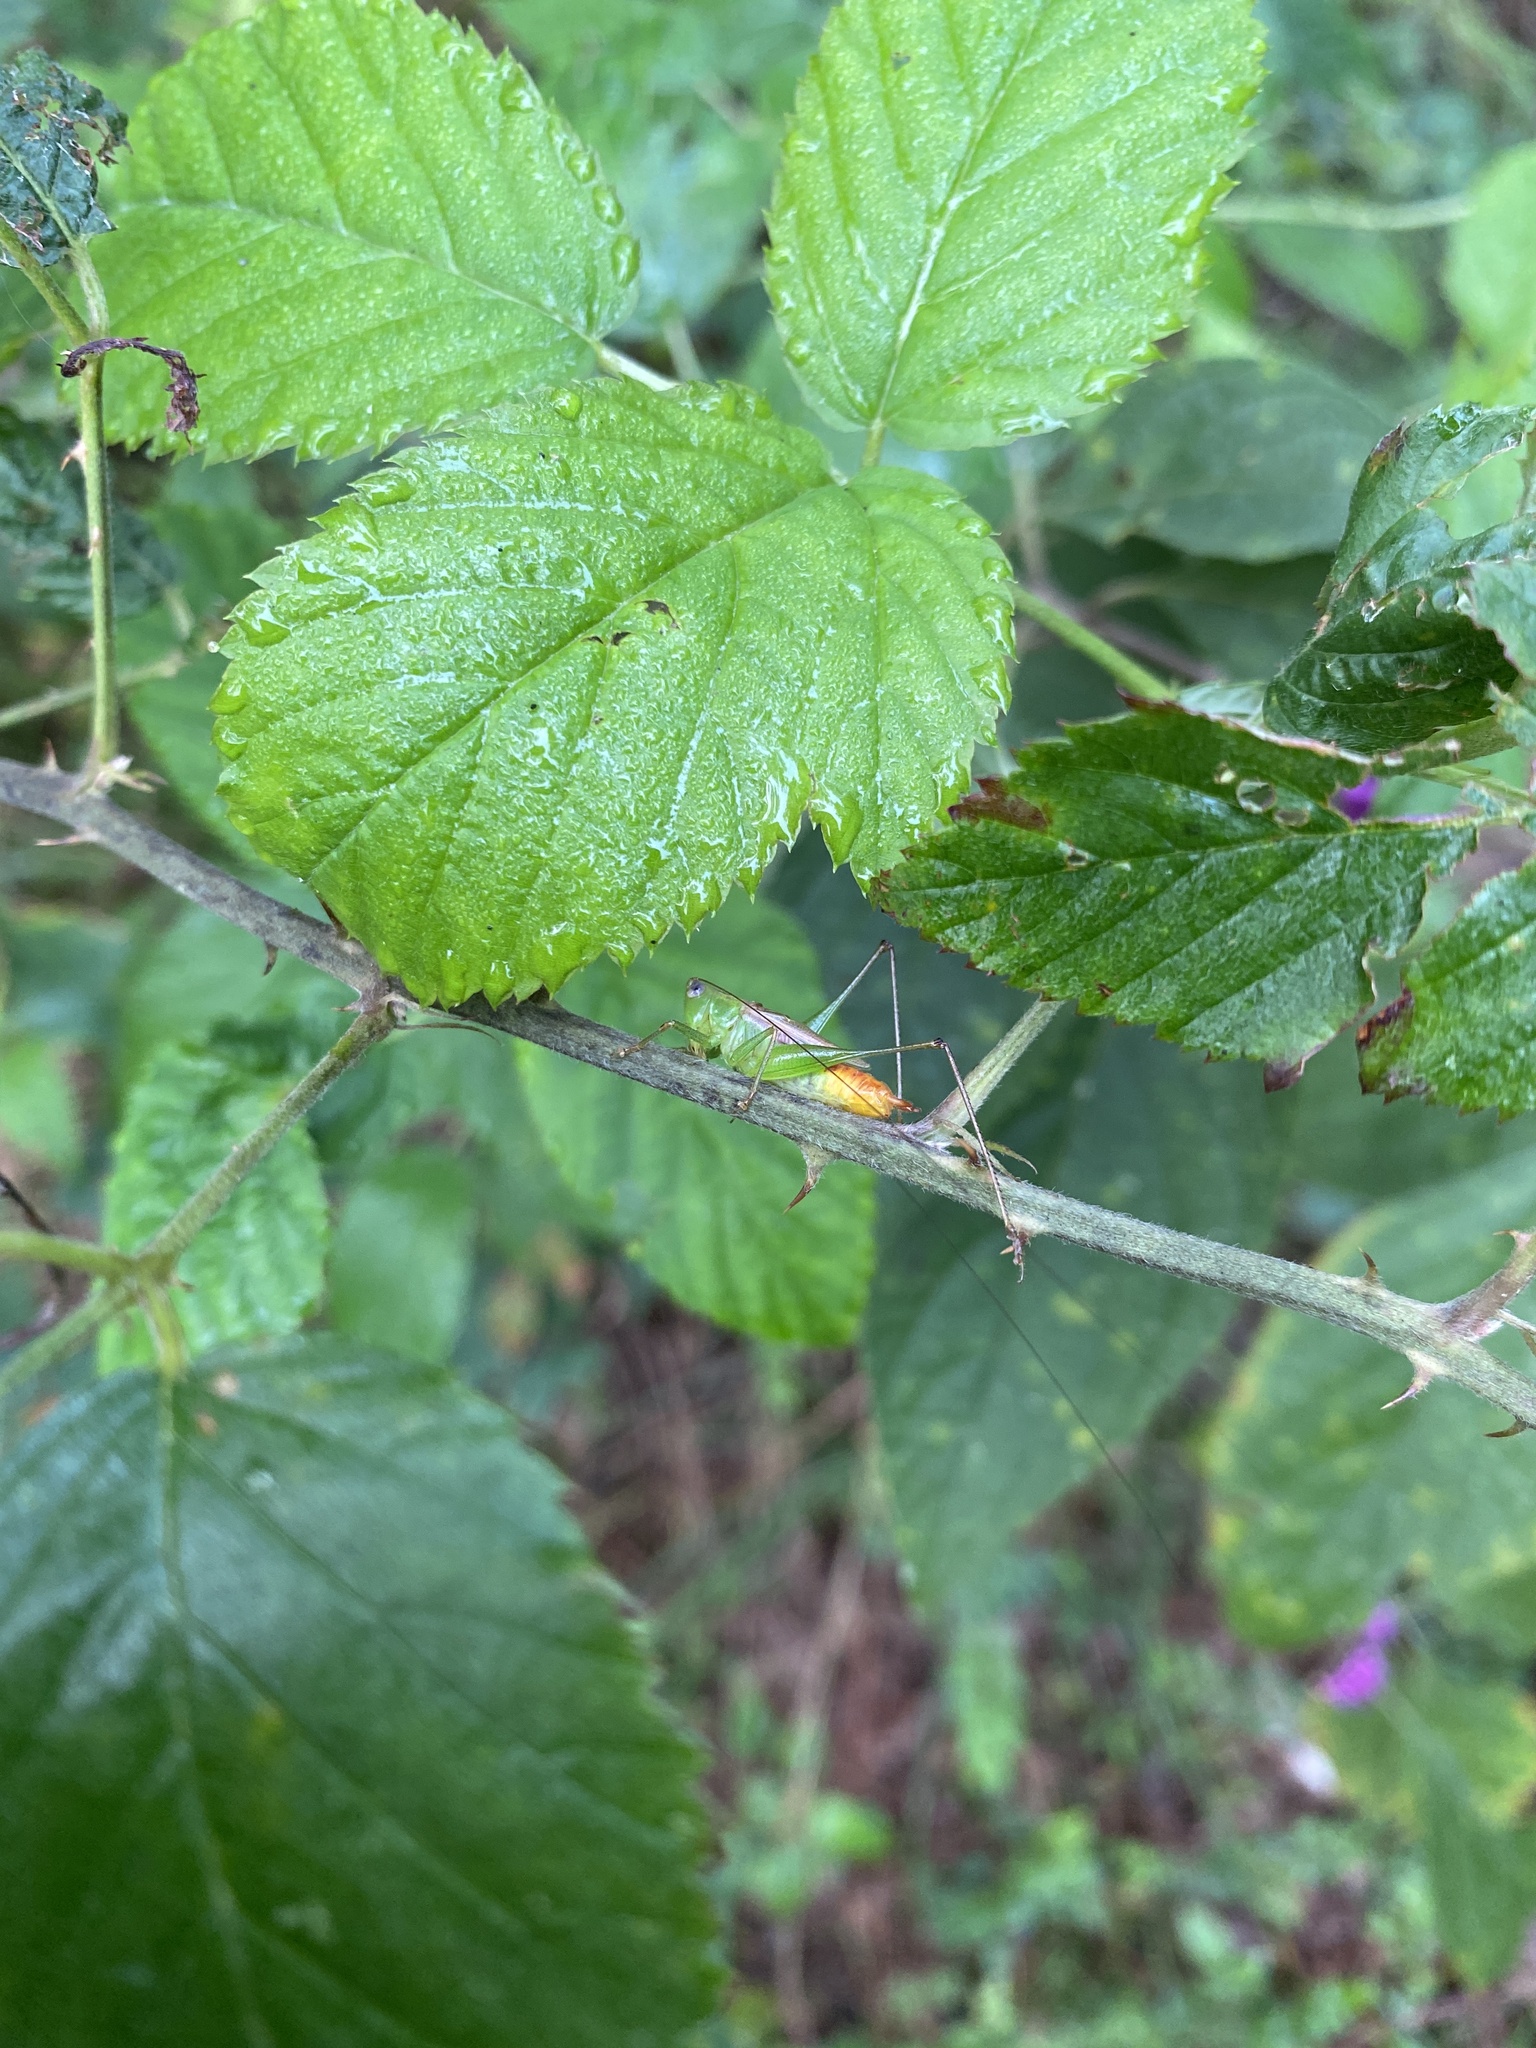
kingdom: Animalia
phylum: Arthropoda
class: Insecta
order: Orthoptera
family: Tettigoniidae
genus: Conocephalus
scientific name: Conocephalus brevipennis
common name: Short-winged meadow katydid
